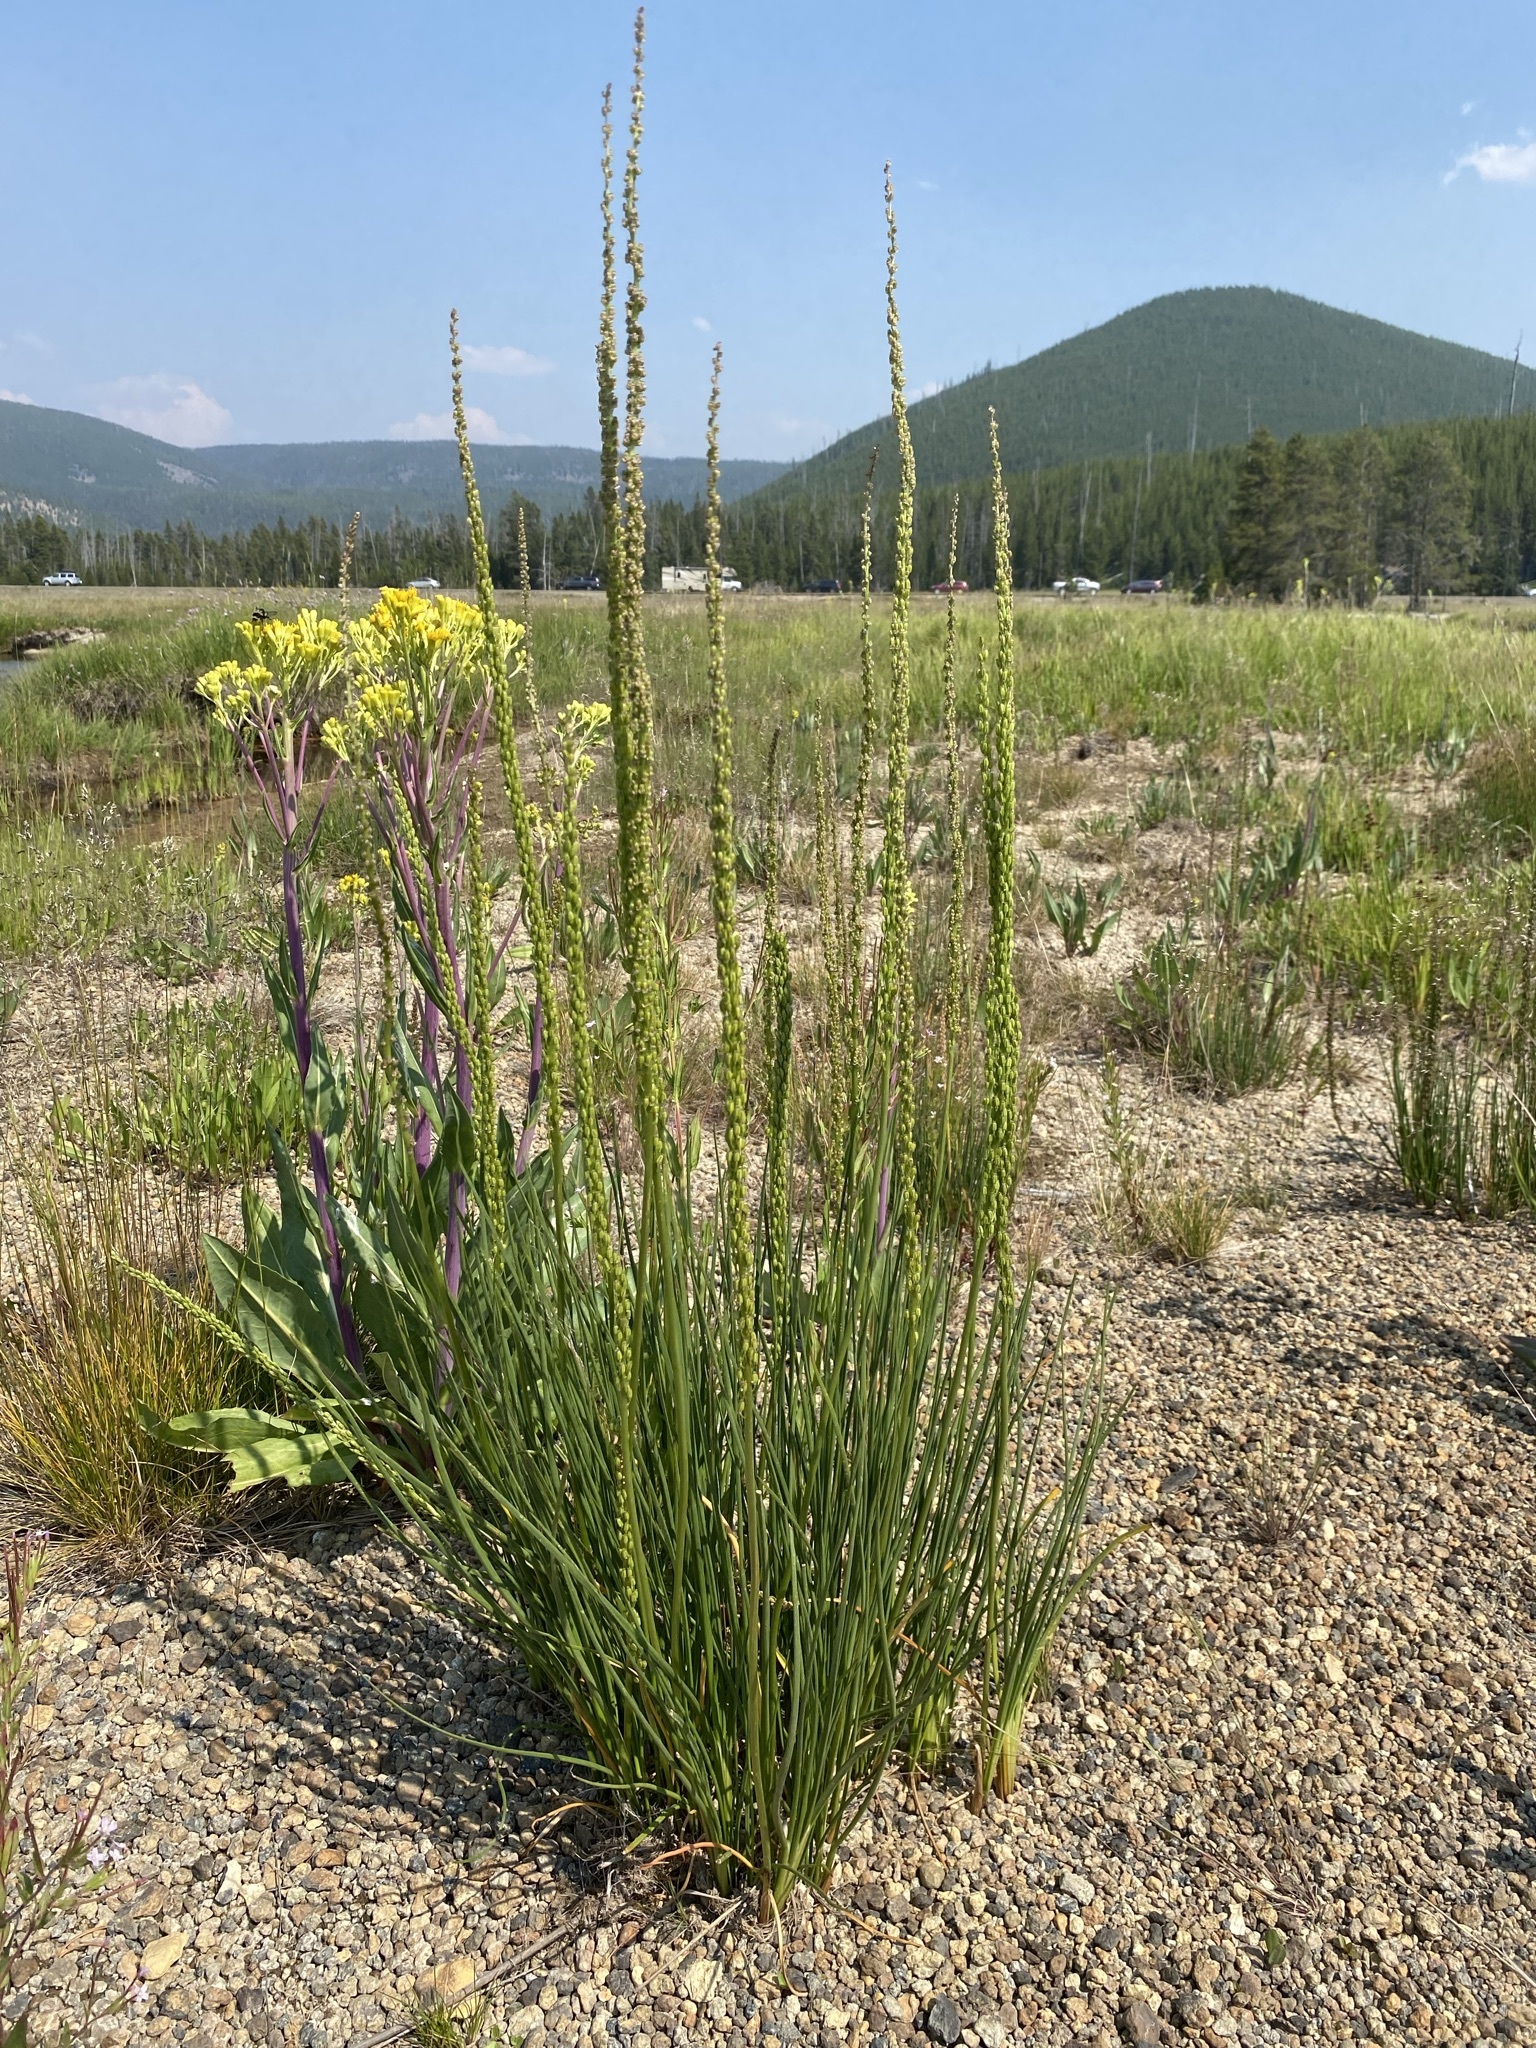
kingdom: Plantae
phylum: Tracheophyta
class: Liliopsida
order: Alismatales
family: Juncaginaceae
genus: Triglochin
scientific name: Triglochin maritima
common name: Sea arrowgrass
